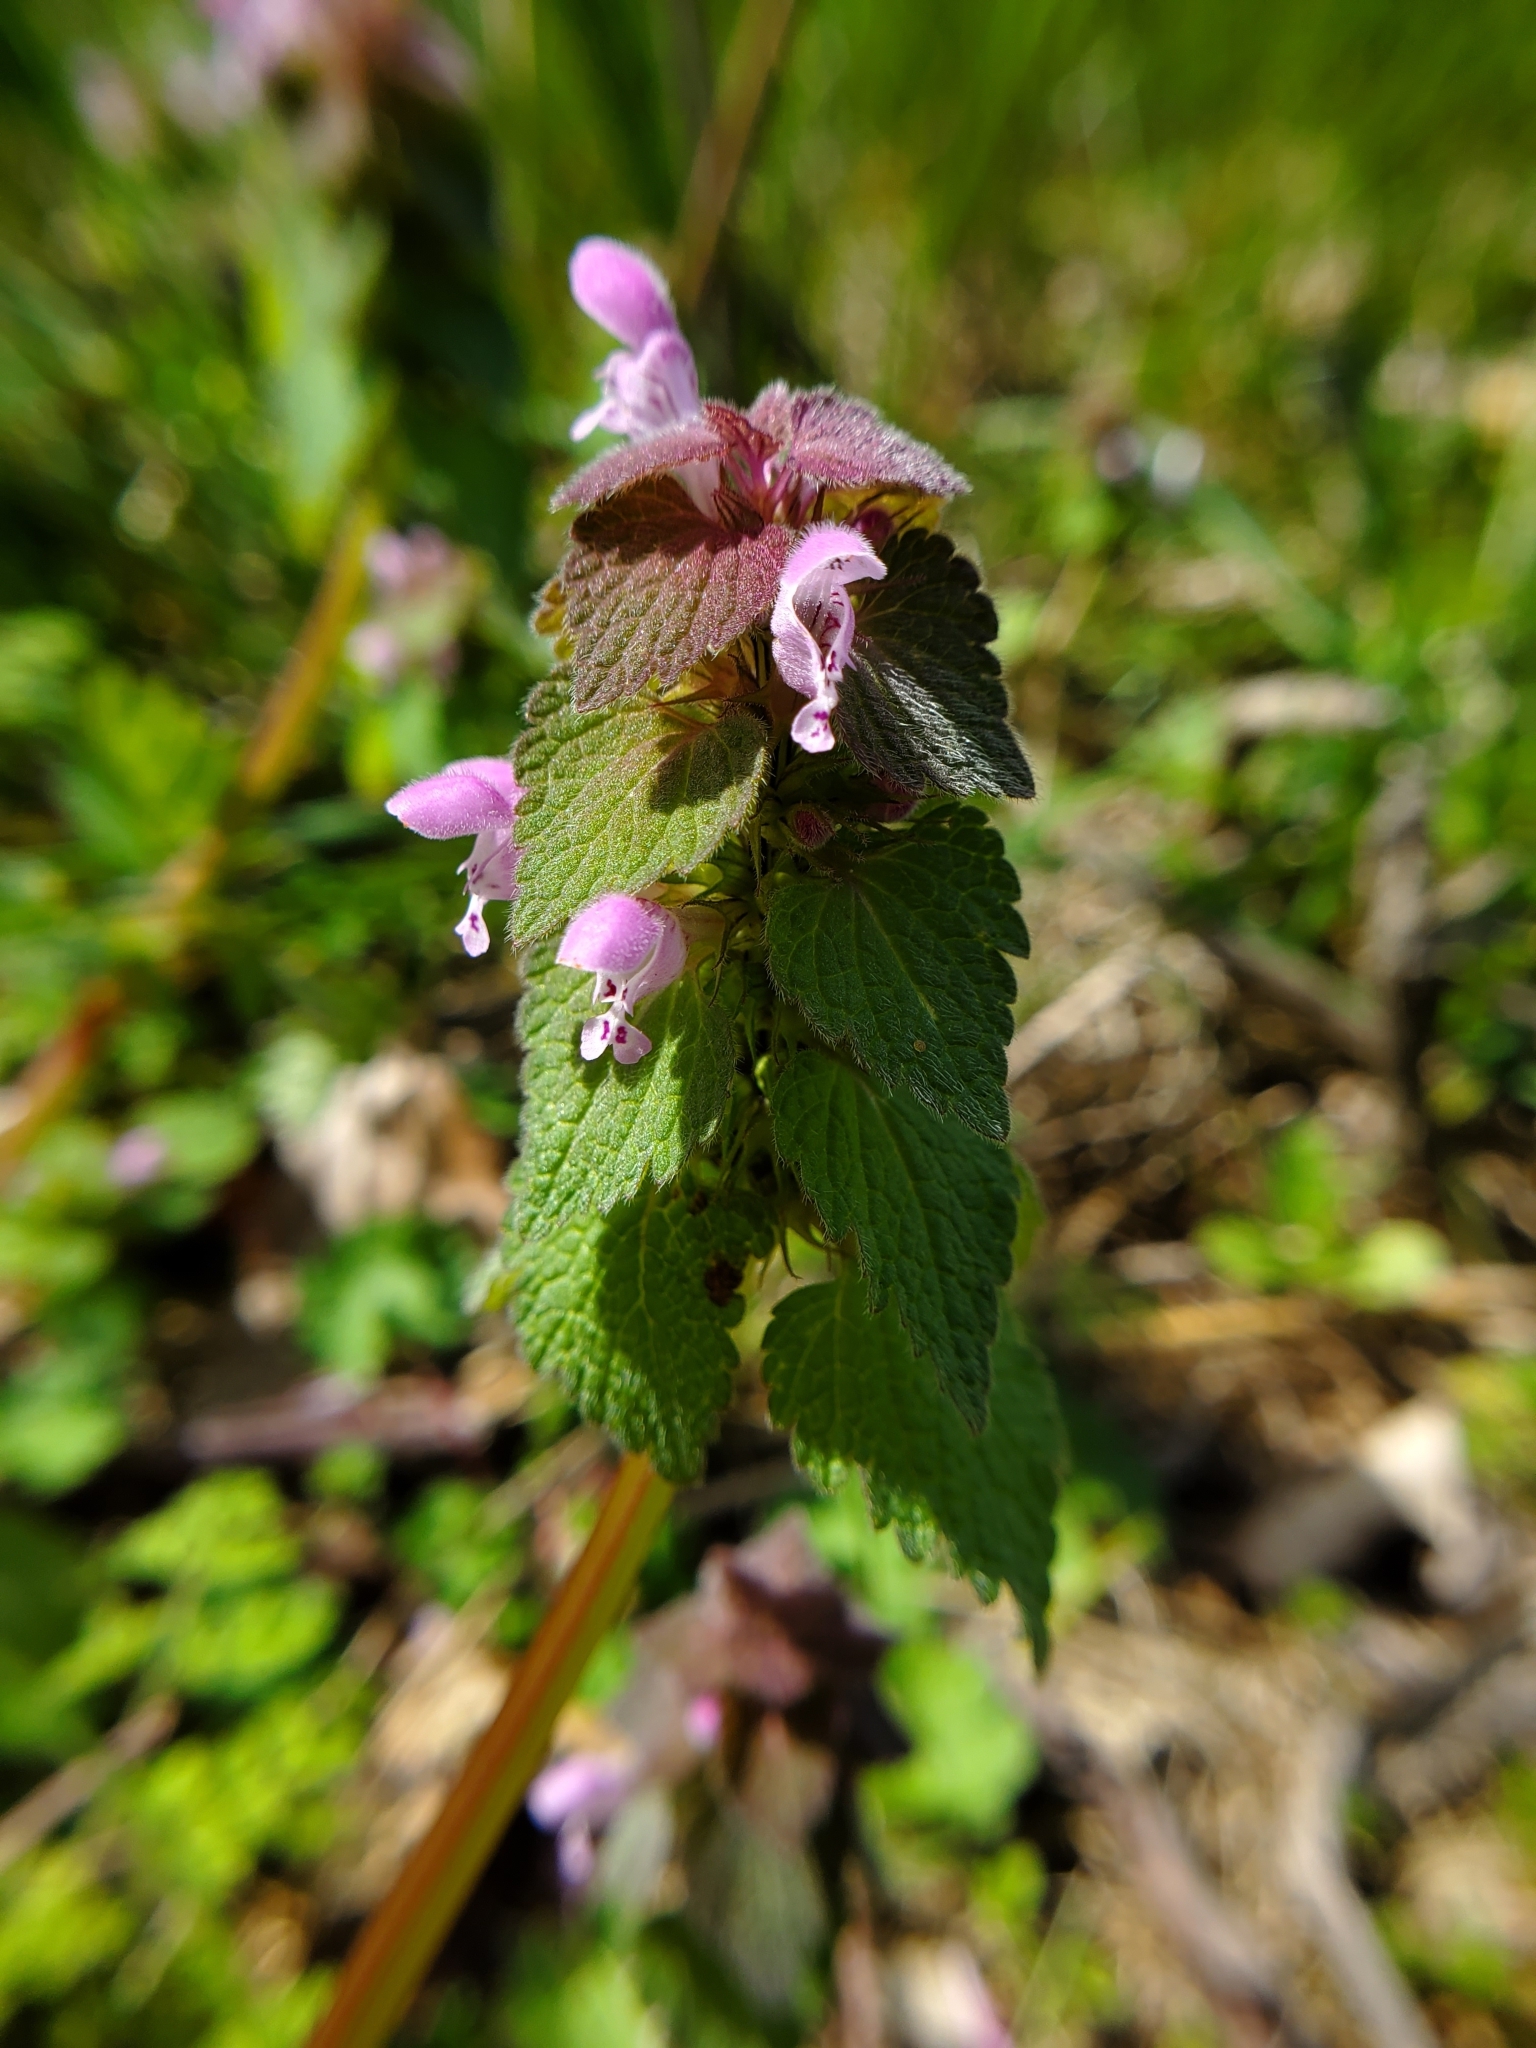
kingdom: Plantae
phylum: Tracheophyta
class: Magnoliopsida
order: Lamiales
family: Lamiaceae
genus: Lamium
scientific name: Lamium purpureum
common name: Red dead-nettle
